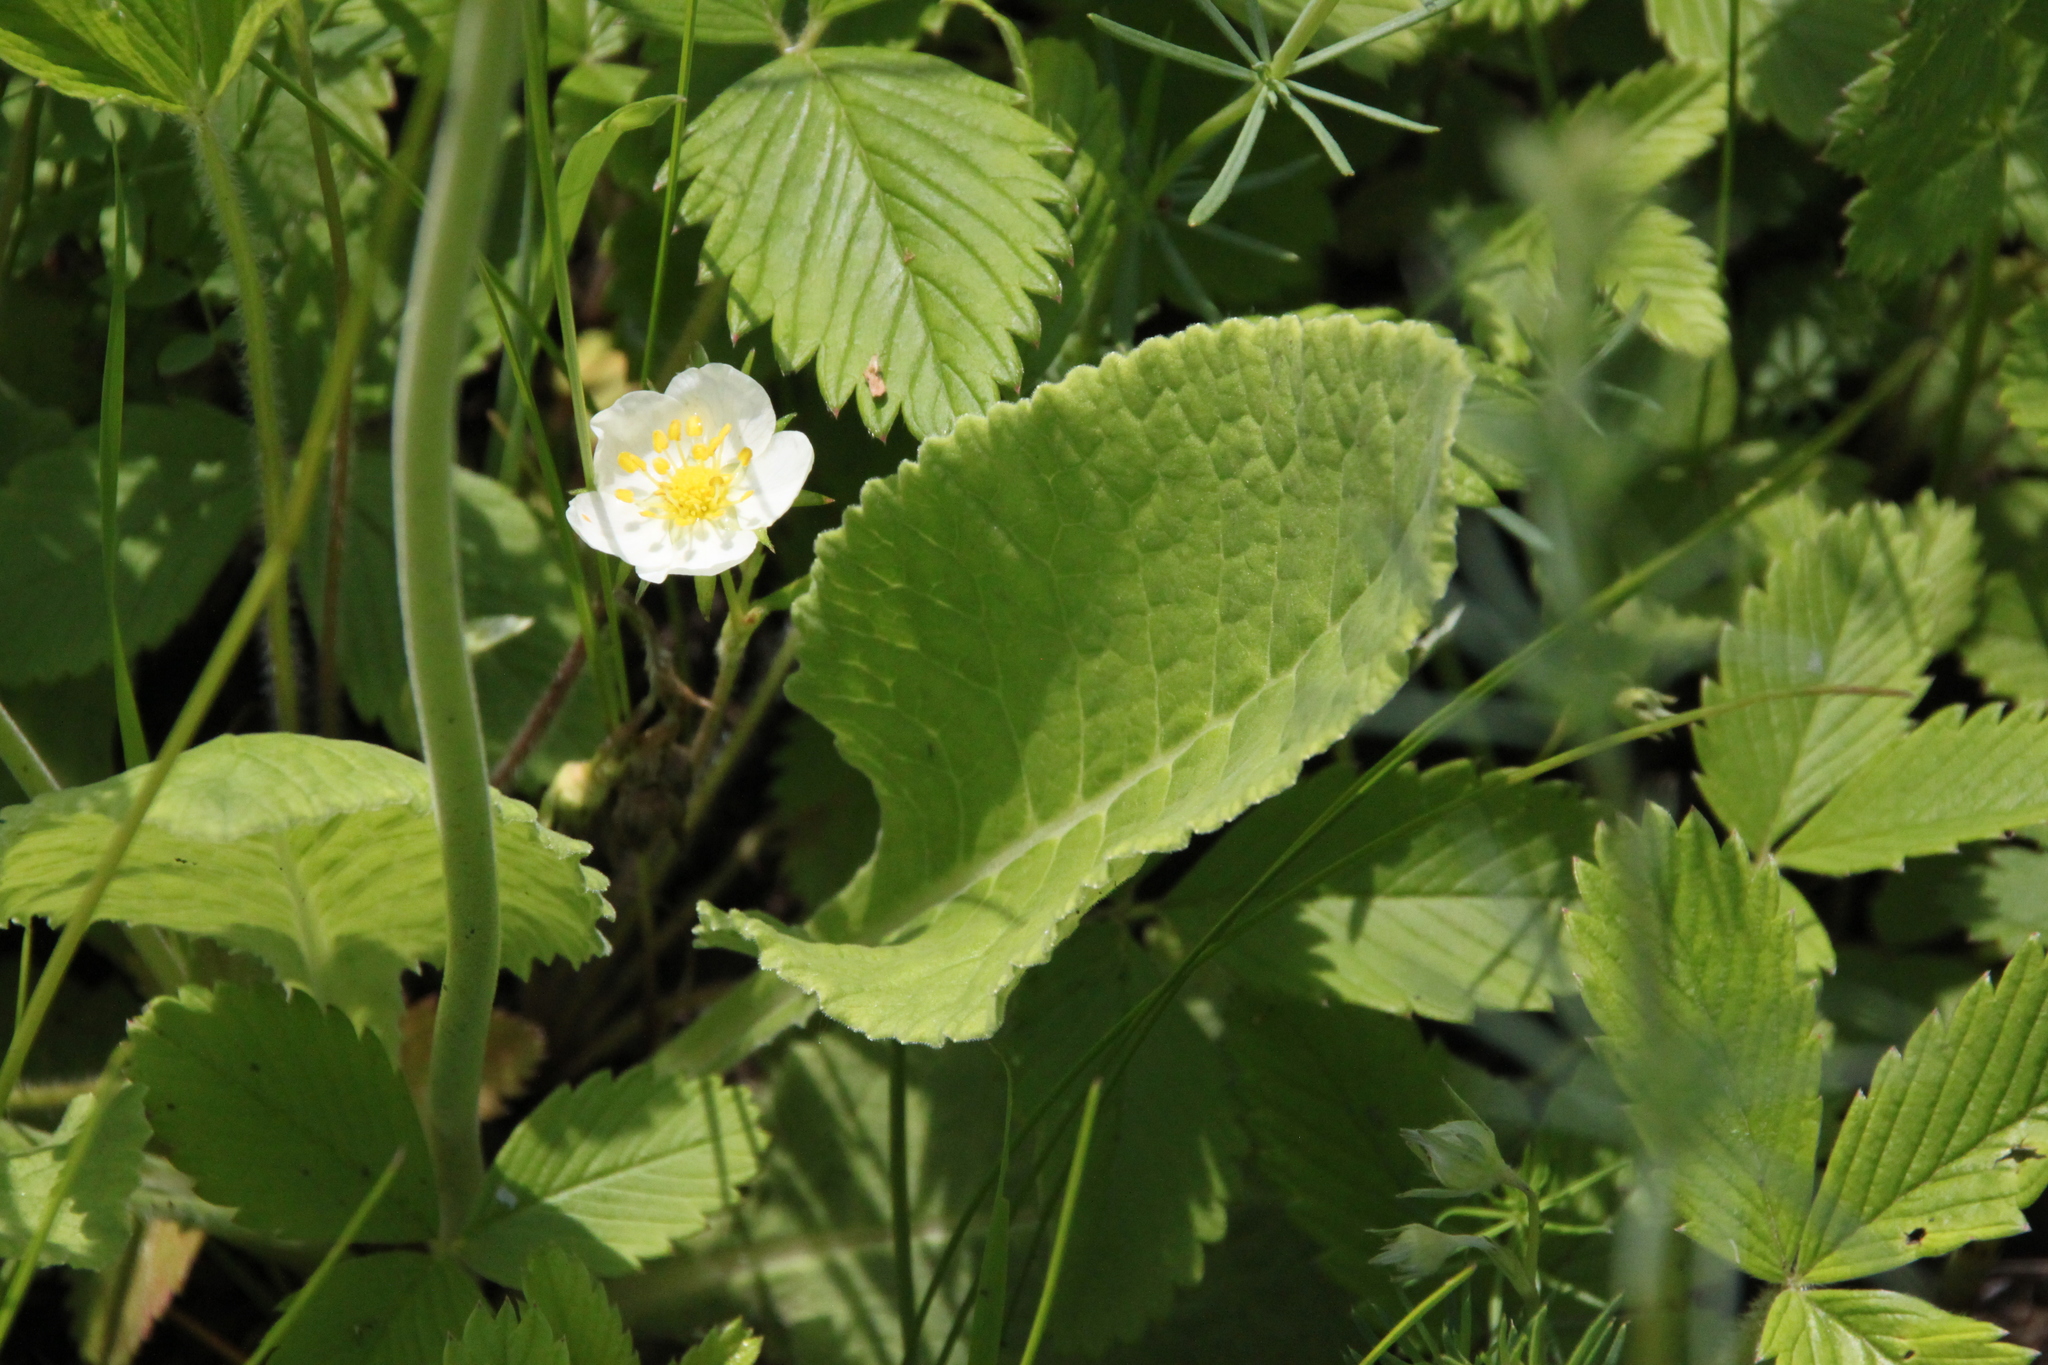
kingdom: Plantae
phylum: Tracheophyta
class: Magnoliopsida
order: Ericales
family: Primulaceae
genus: Primula
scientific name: Primula veris
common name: Cowslip
